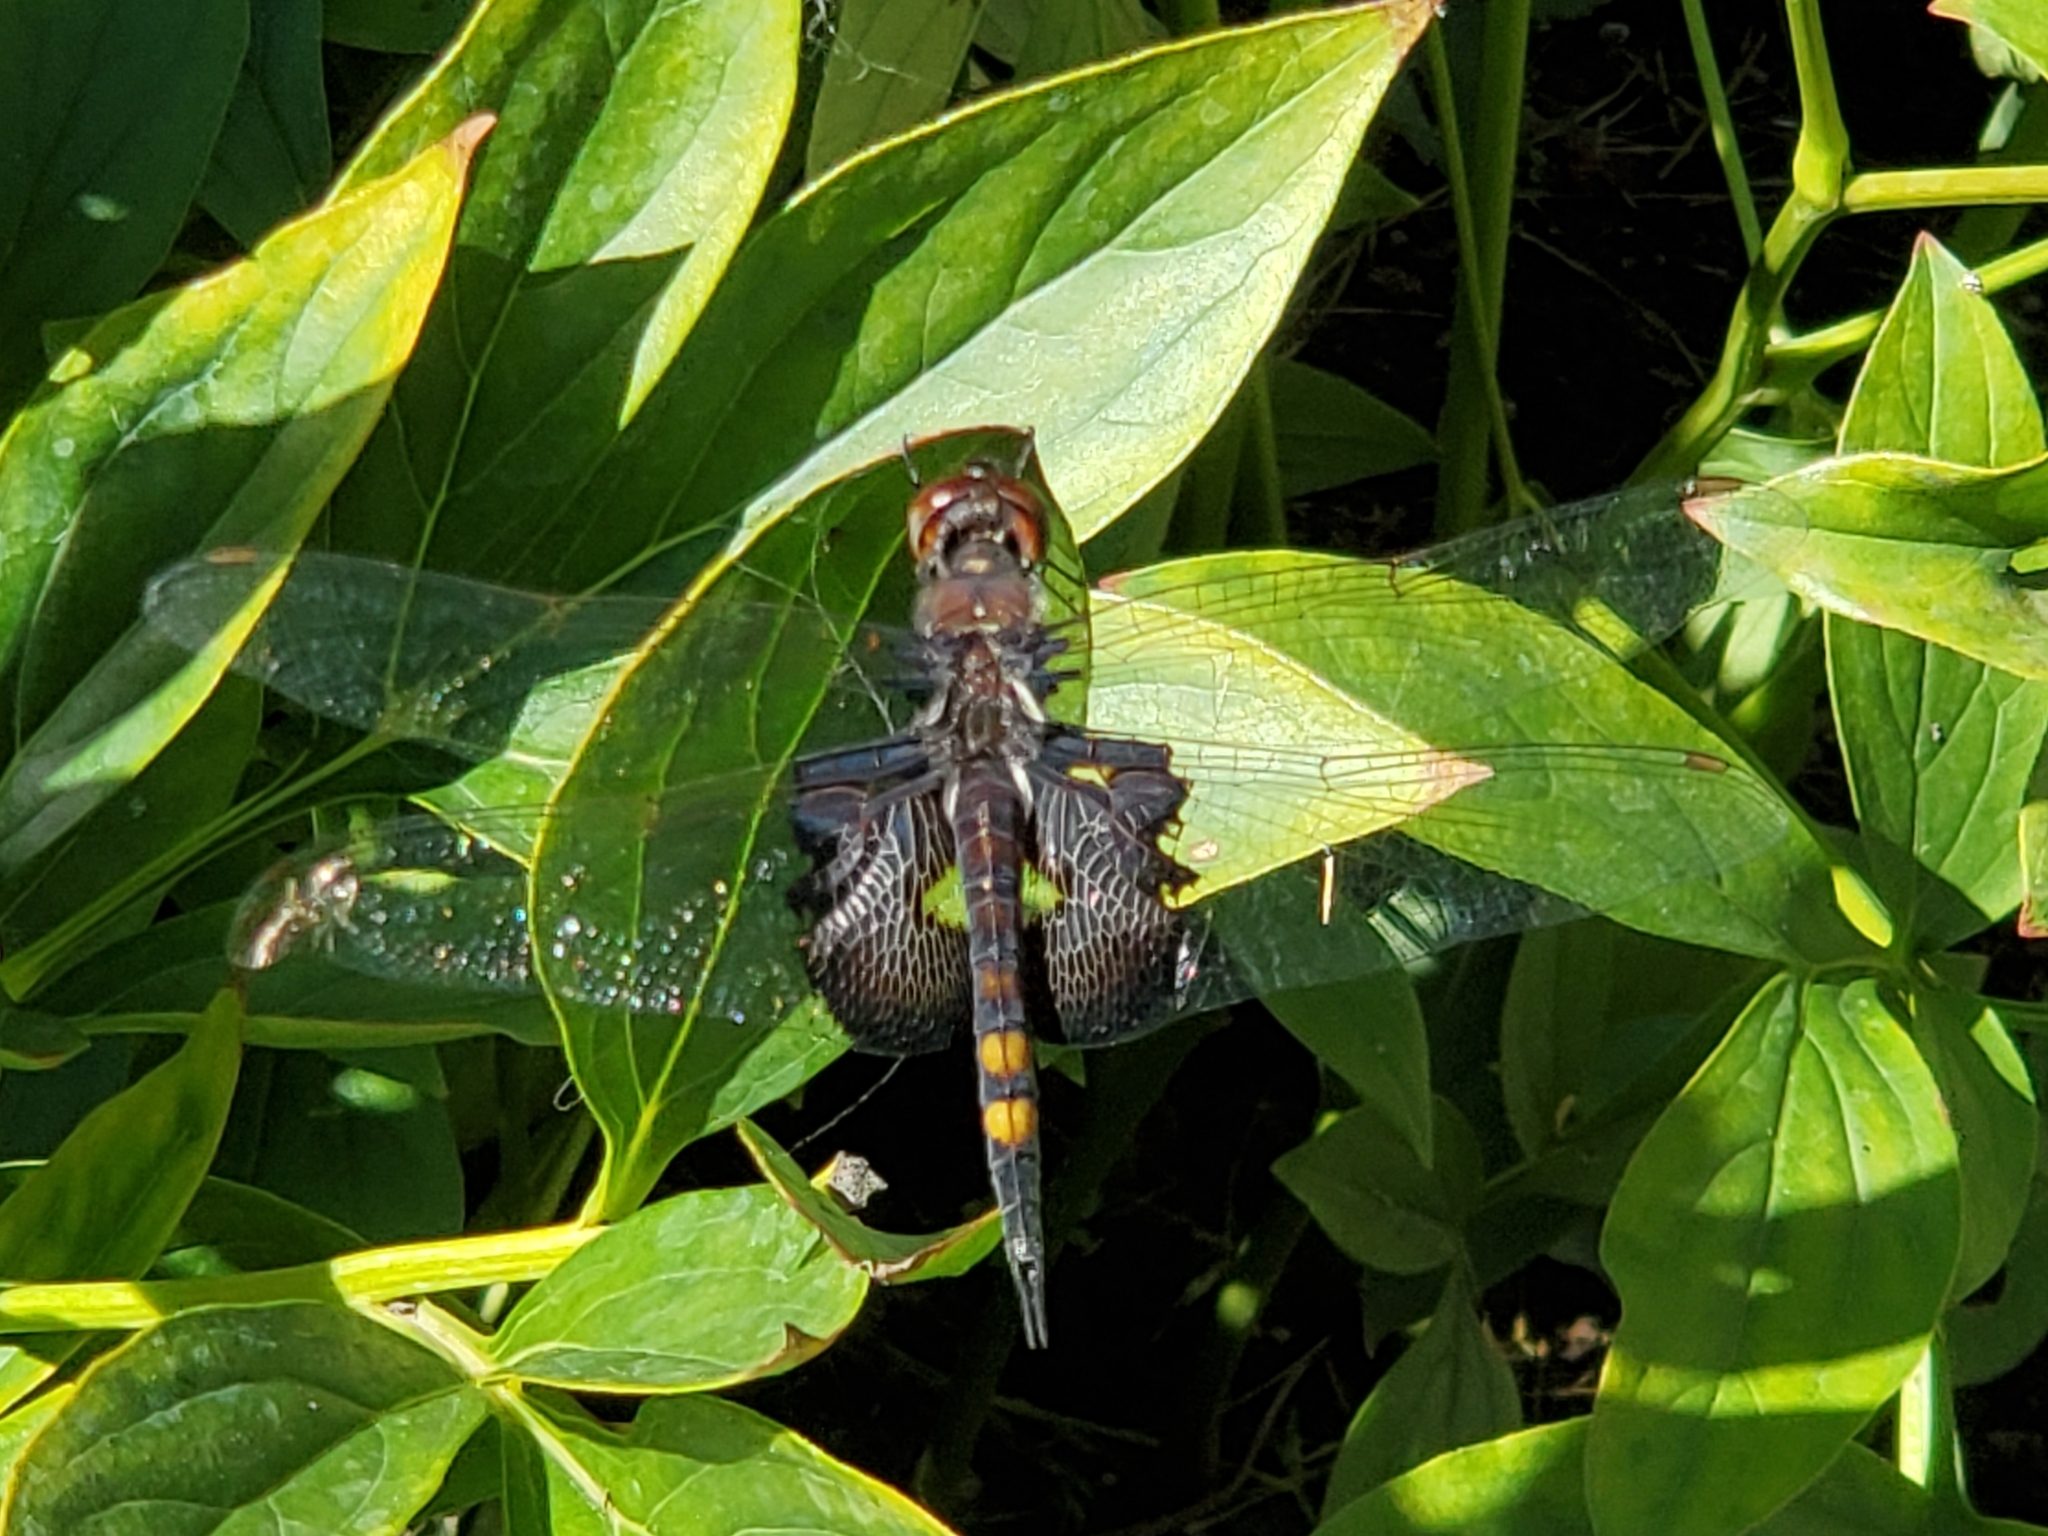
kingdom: Animalia
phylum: Arthropoda
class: Insecta
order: Odonata
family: Libellulidae
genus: Tramea
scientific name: Tramea lacerata
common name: Black saddlebags
